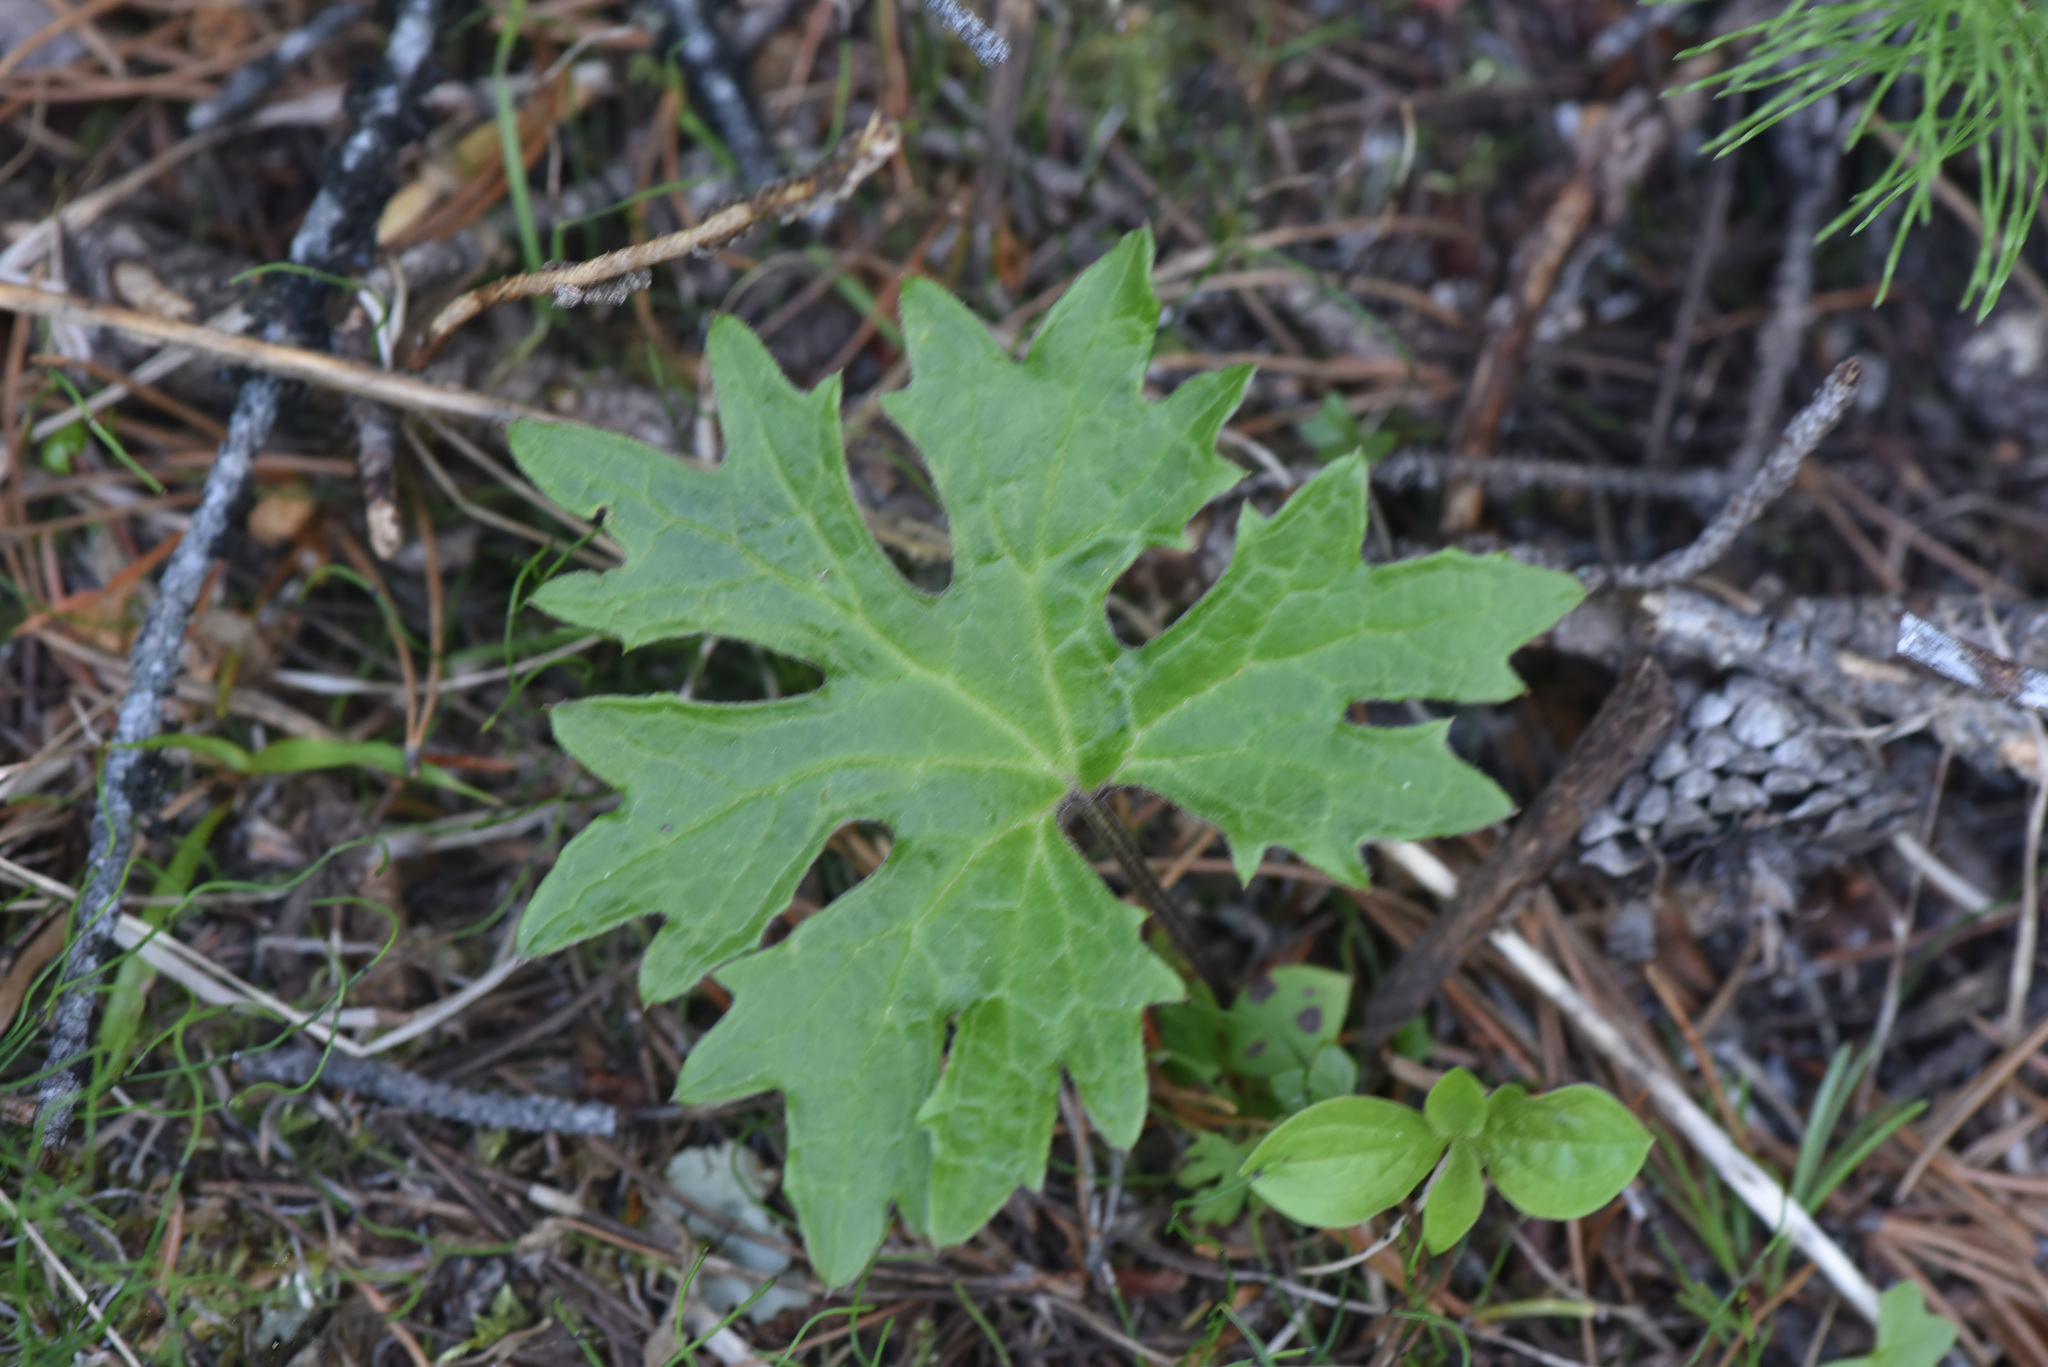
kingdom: Plantae
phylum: Tracheophyta
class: Magnoliopsida
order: Asterales
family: Asteraceae
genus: Petasites
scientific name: Petasites frigidus
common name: Arctic butterbur
